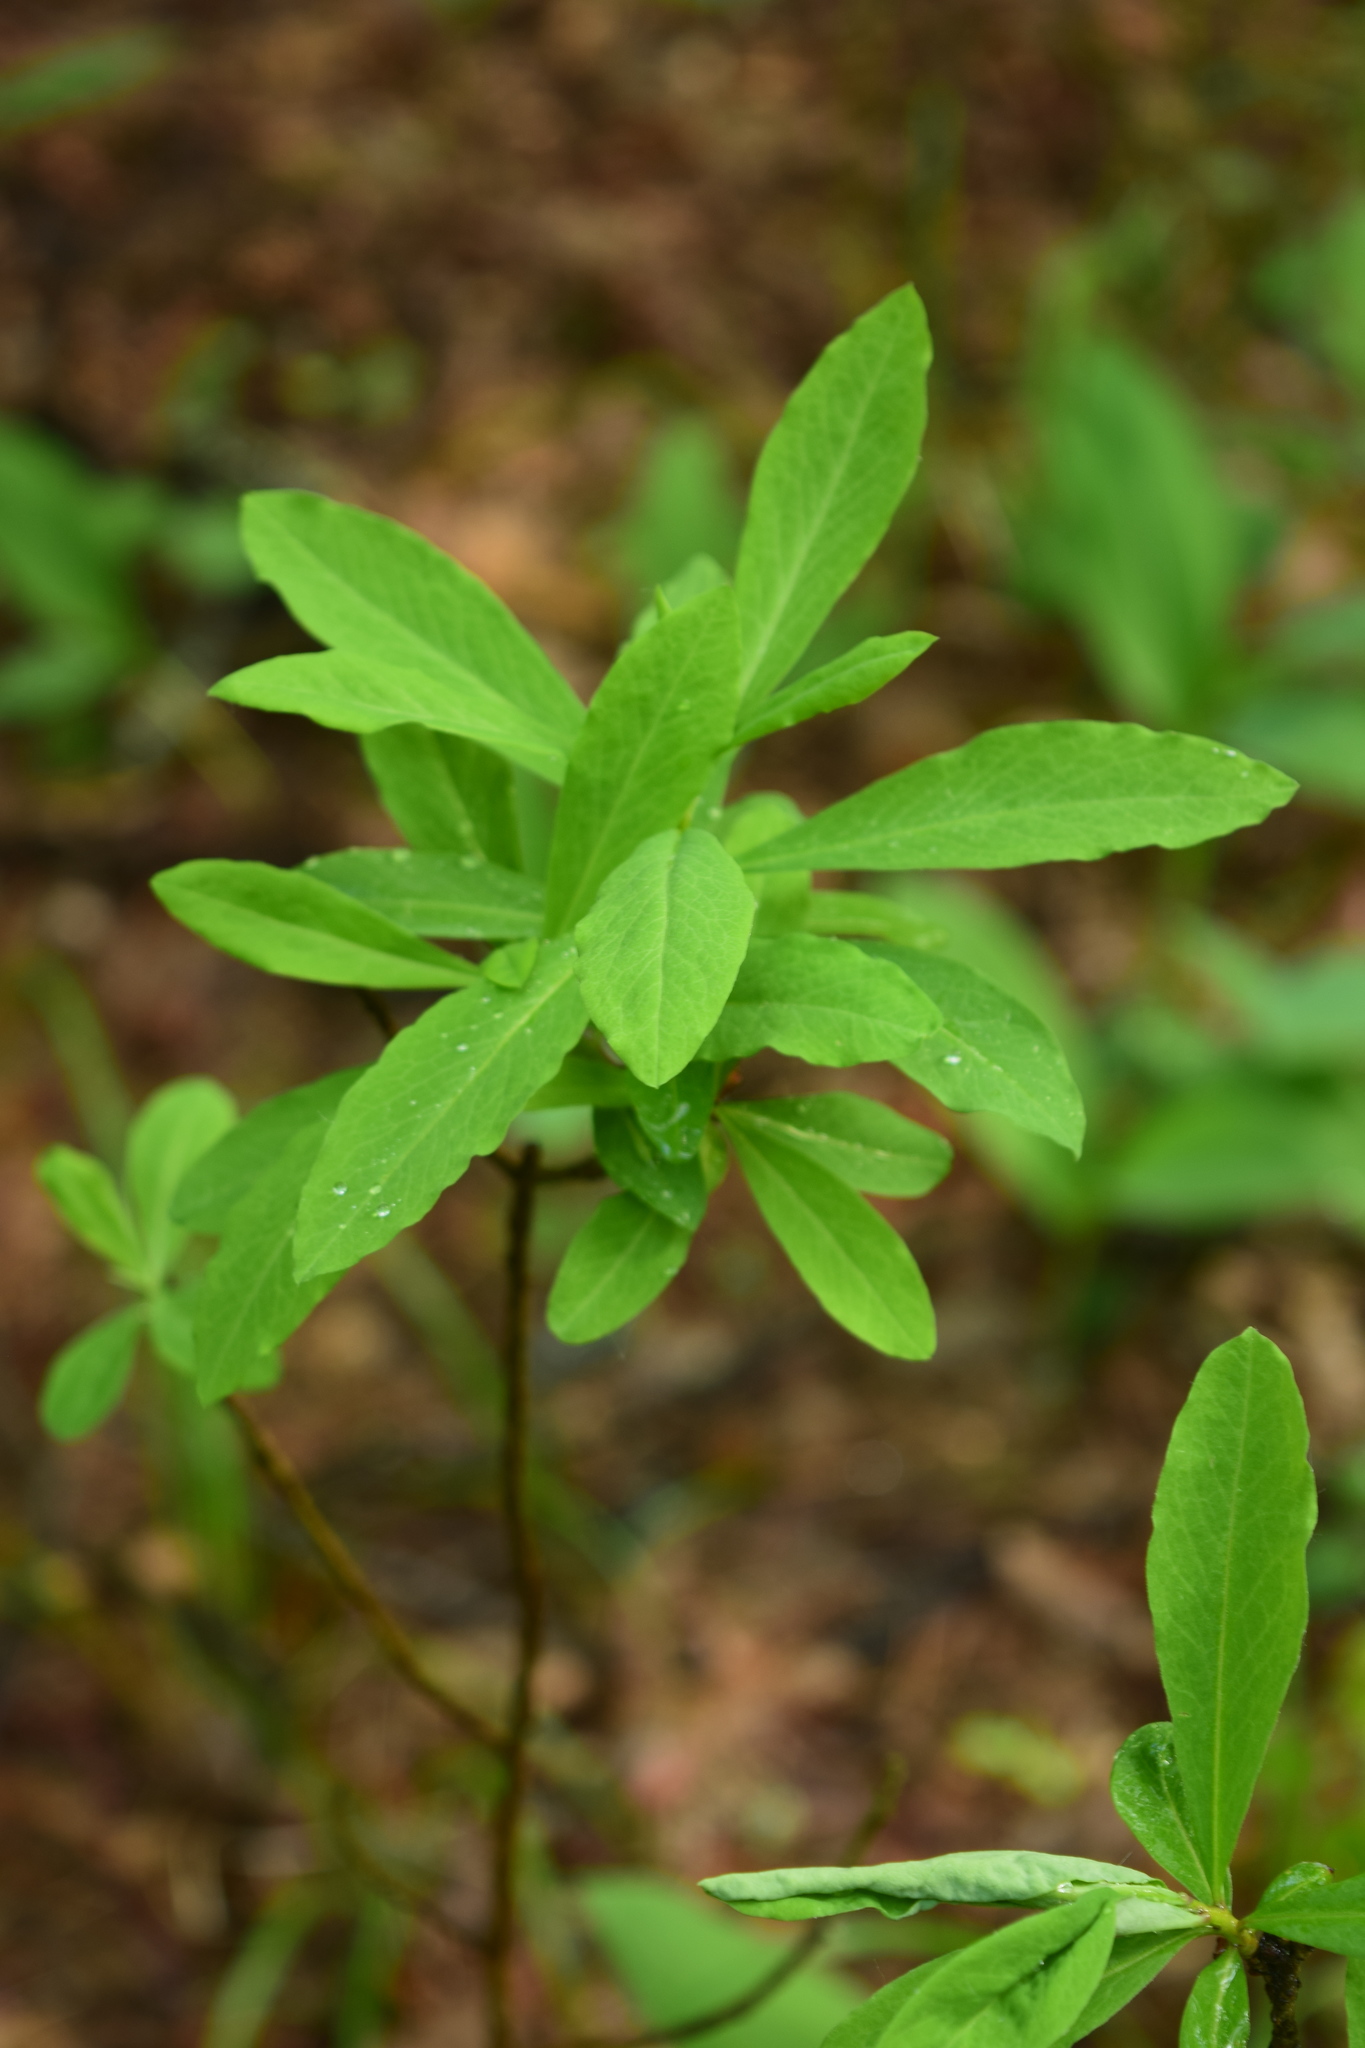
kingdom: Plantae
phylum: Tracheophyta
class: Magnoliopsida
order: Malvales
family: Thymelaeaceae
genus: Daphne
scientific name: Daphne mezereum
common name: Mezereon
